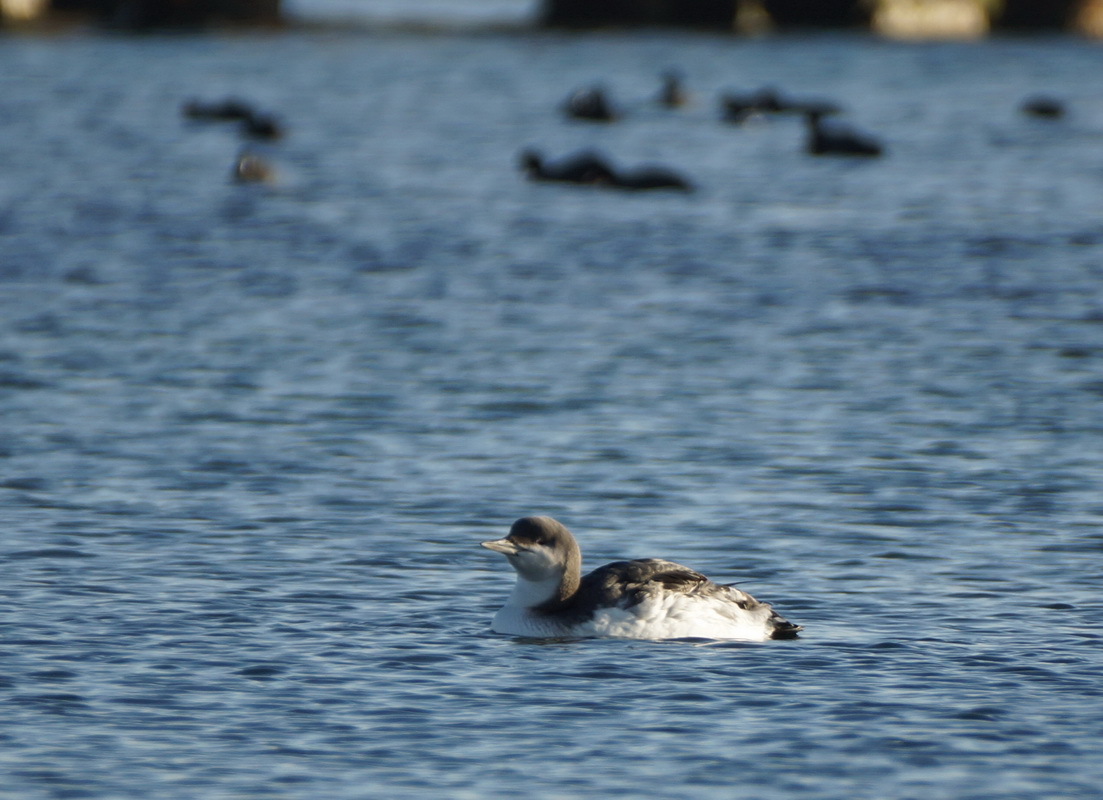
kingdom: Animalia
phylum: Chordata
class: Aves
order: Gaviiformes
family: Gaviidae
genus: Gavia
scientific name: Gavia arctica
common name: Black-throated loon
